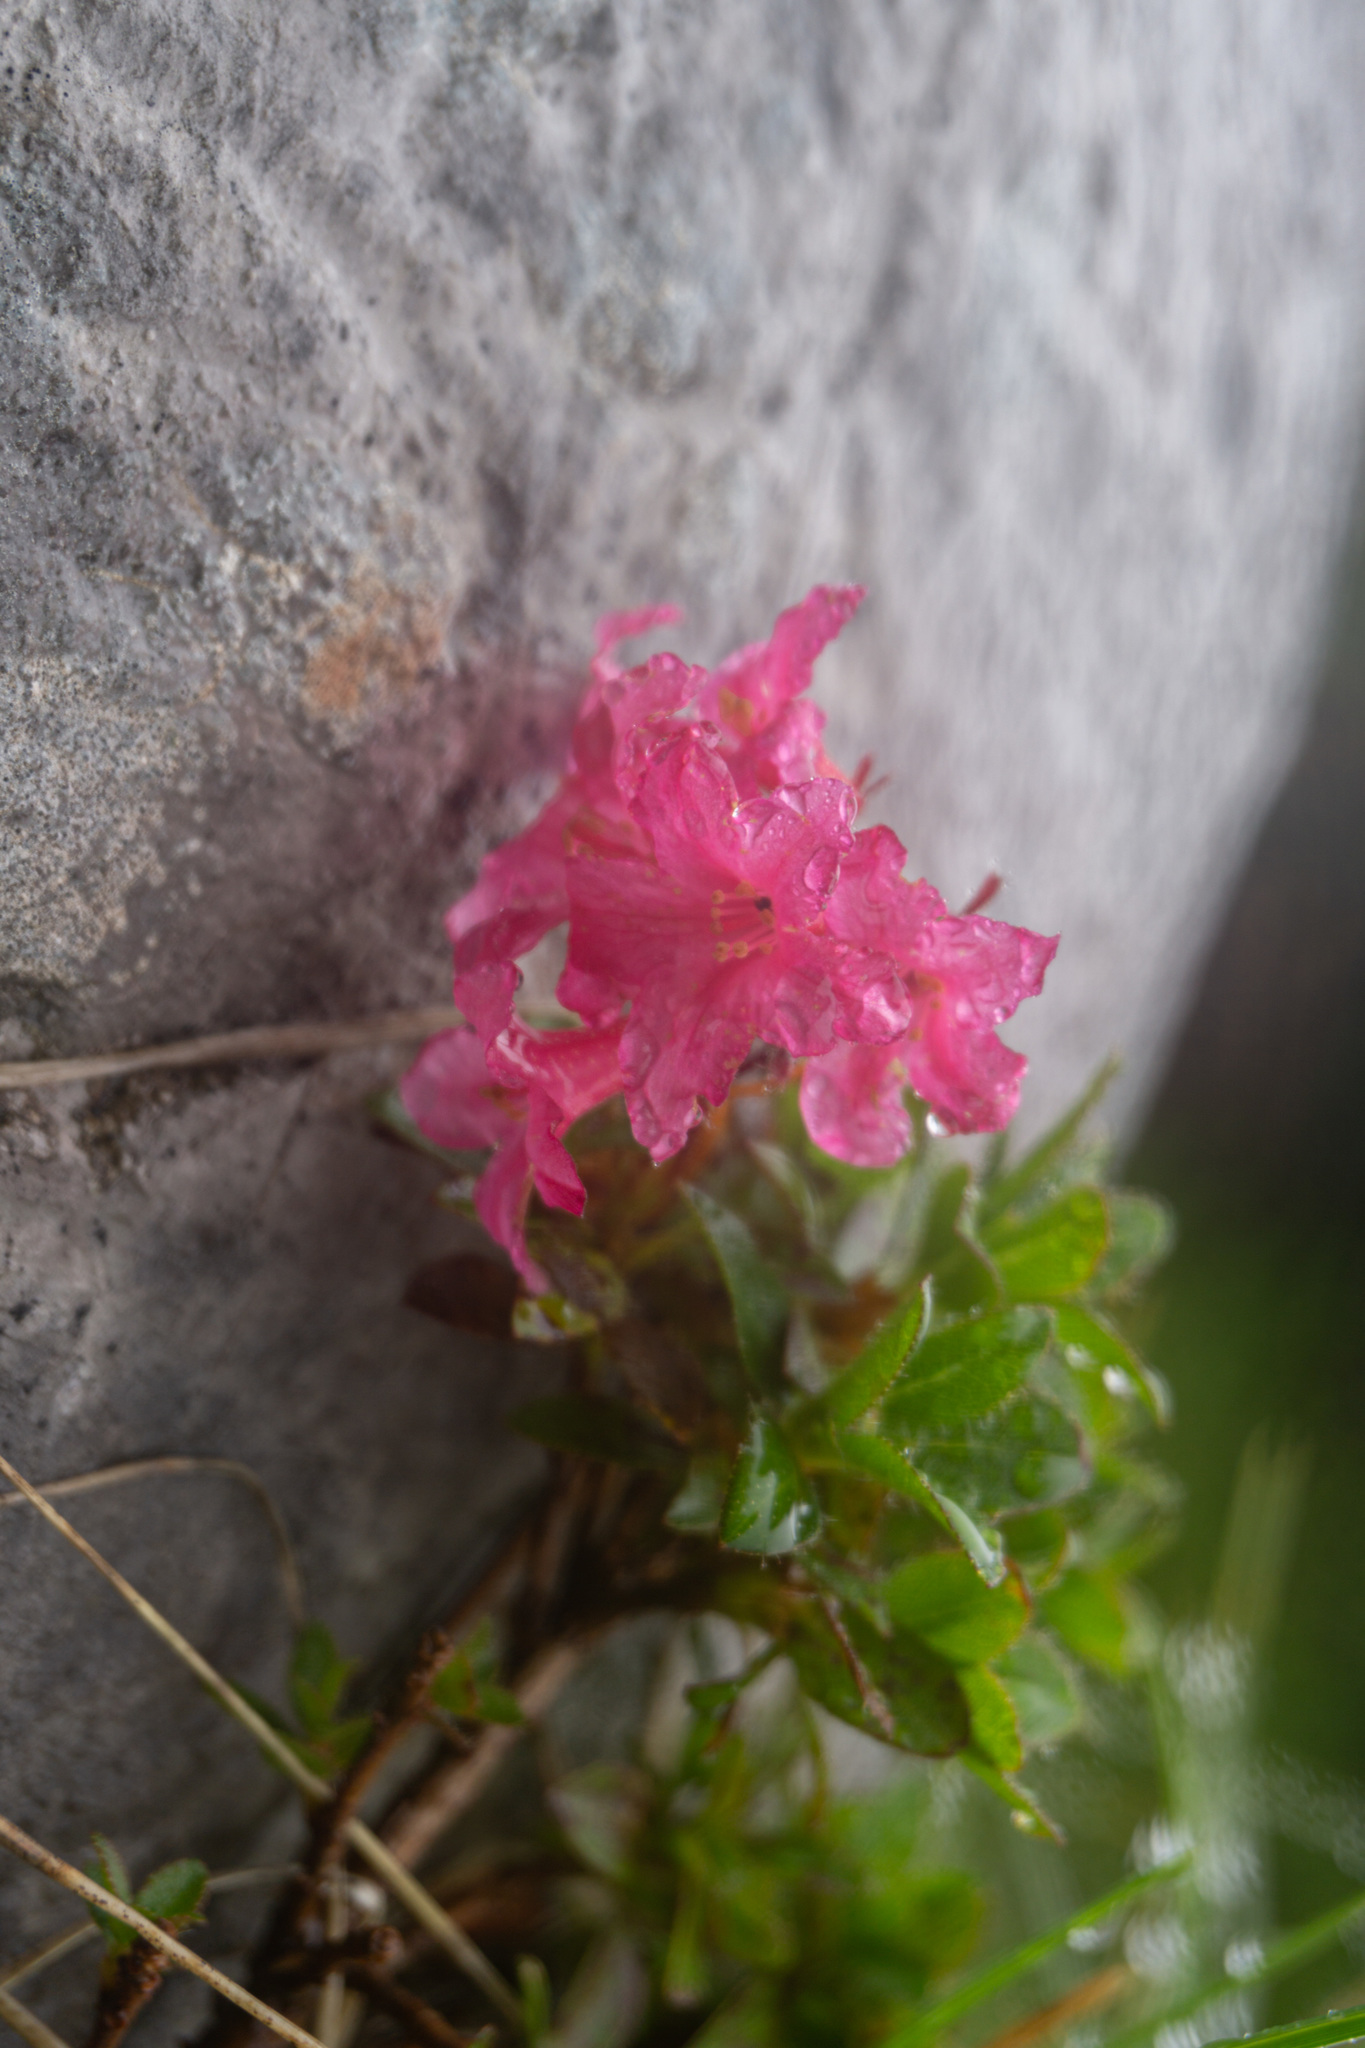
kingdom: Plantae
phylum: Tracheophyta
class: Magnoliopsida
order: Ericales
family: Ericaceae
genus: Rhododendron
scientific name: Rhododendron hirsutum
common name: Hairy alpenrose
